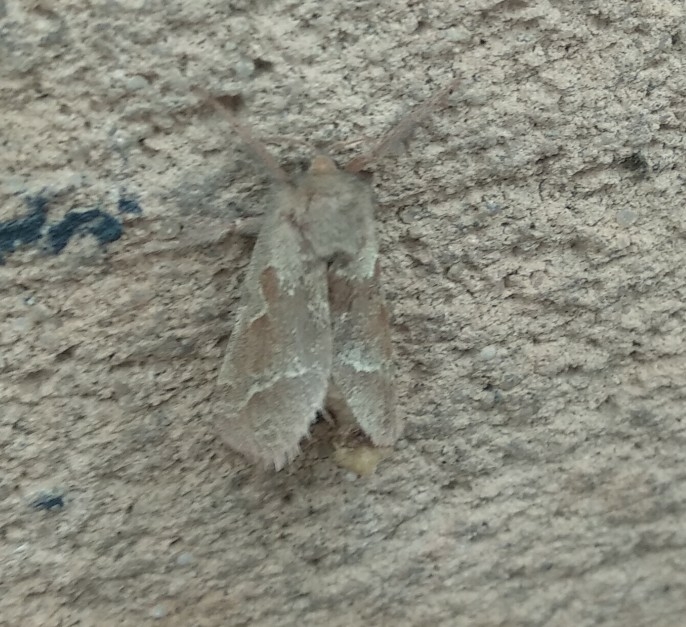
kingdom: Animalia
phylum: Arthropoda
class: Insecta
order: Lepidoptera
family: Hepialidae
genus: Triodia
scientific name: Triodia sylvina
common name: Orange swift
